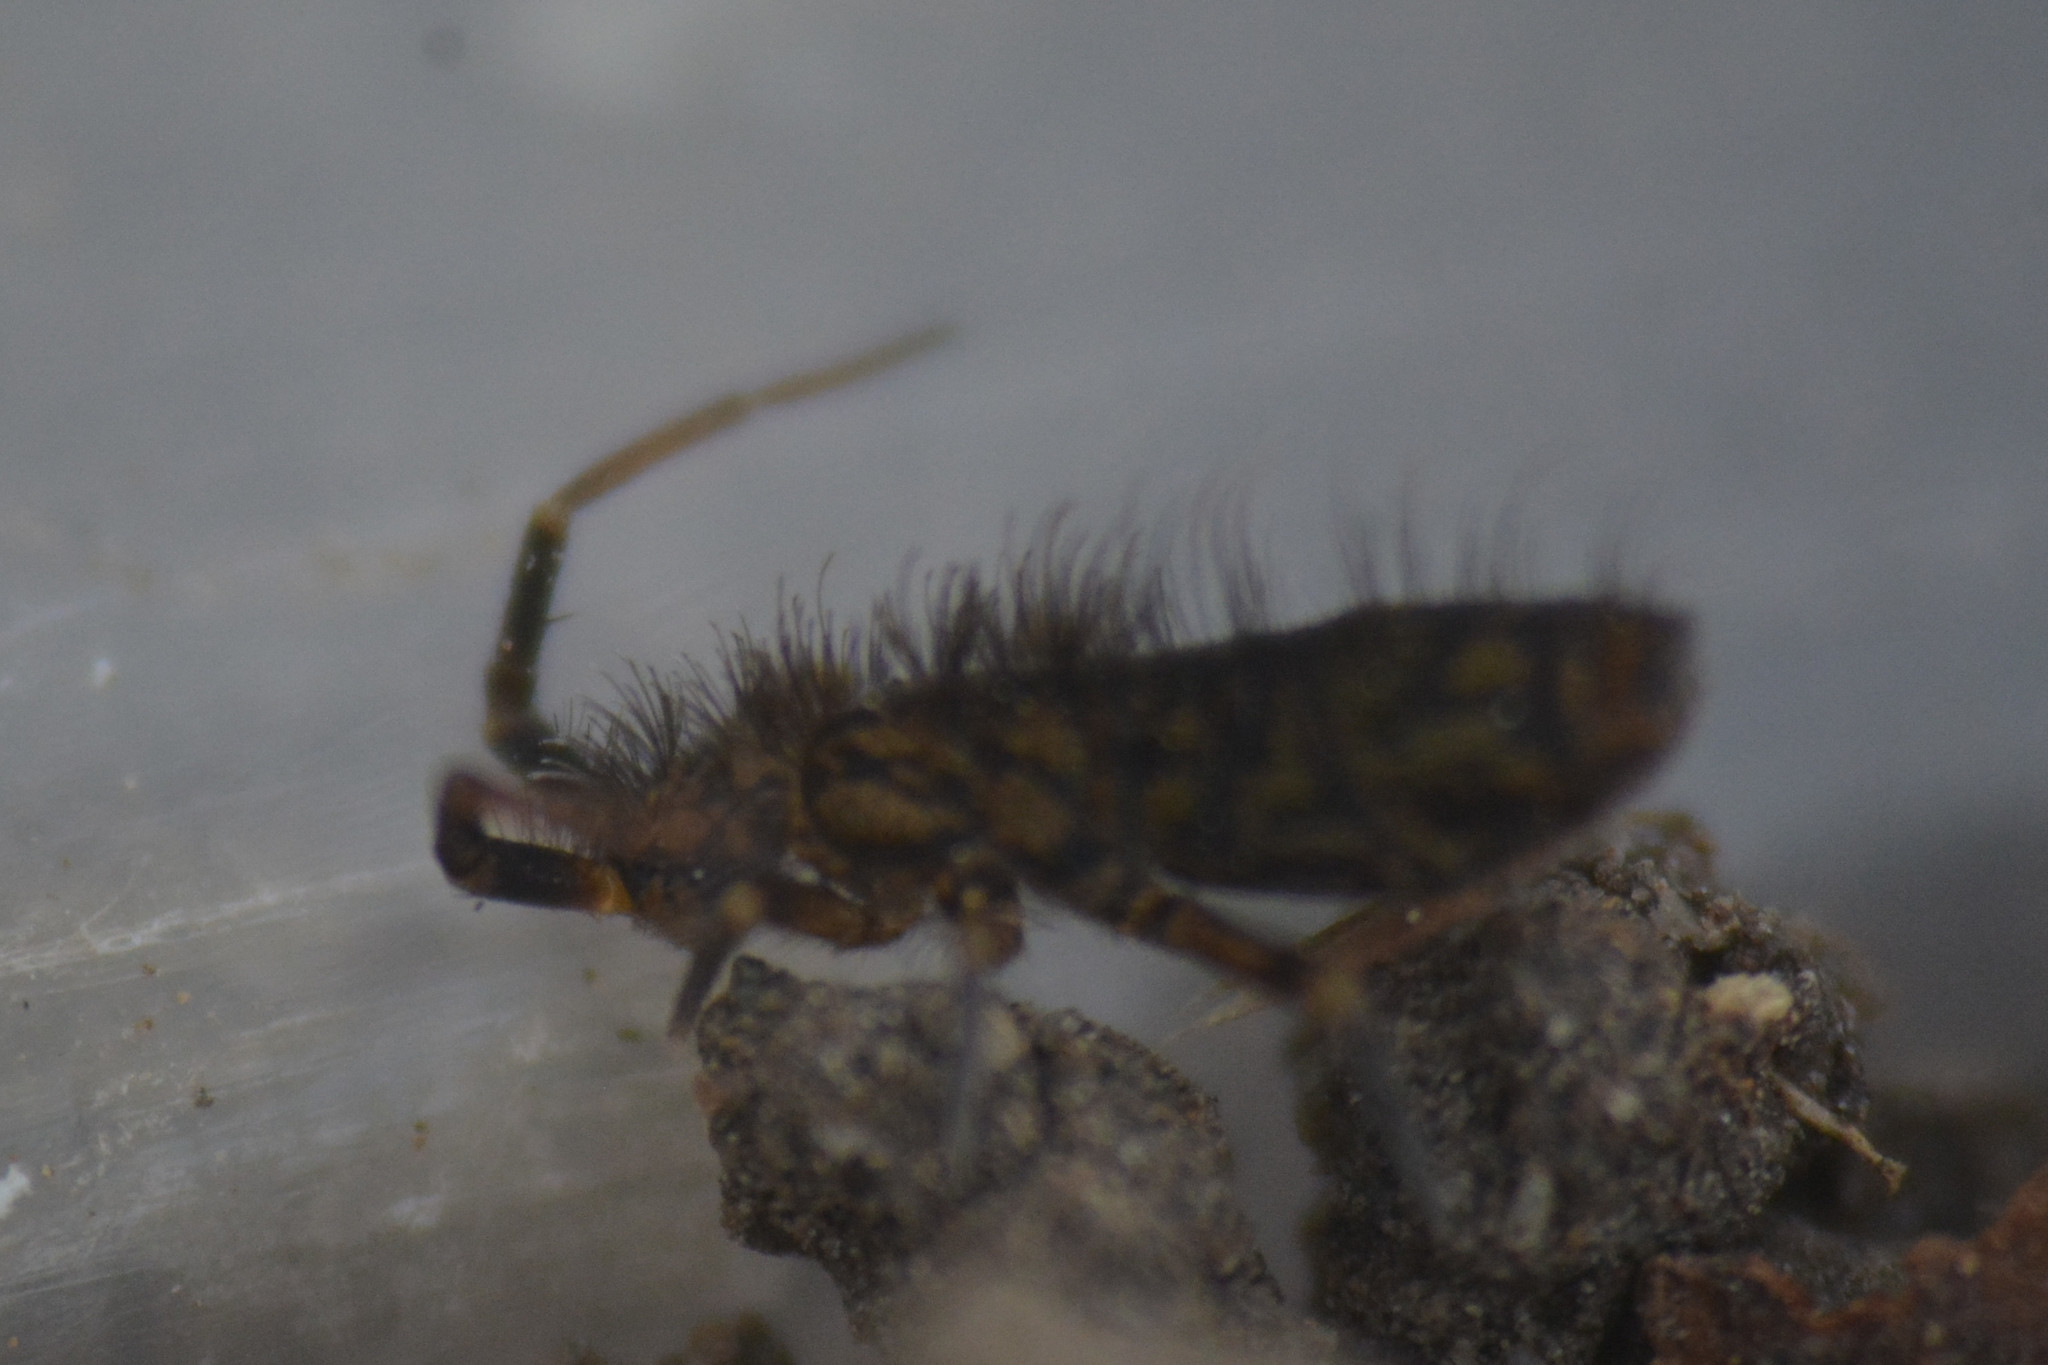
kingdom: Animalia
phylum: Arthropoda
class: Collembola
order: Entomobryomorpha
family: Orchesellidae
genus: Orchesella
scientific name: Orchesella villosa
